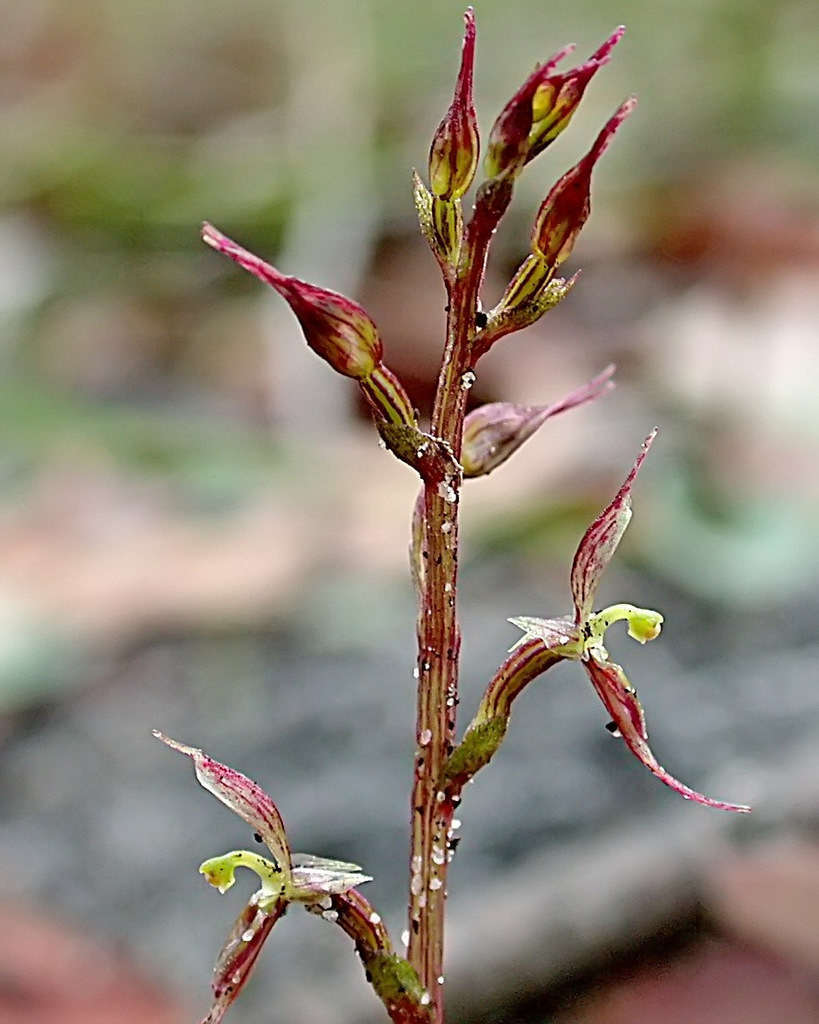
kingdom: Plantae
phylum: Tracheophyta
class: Liliopsida
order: Asparagales
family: Orchidaceae
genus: Acianthus
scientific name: Acianthus pusillus
